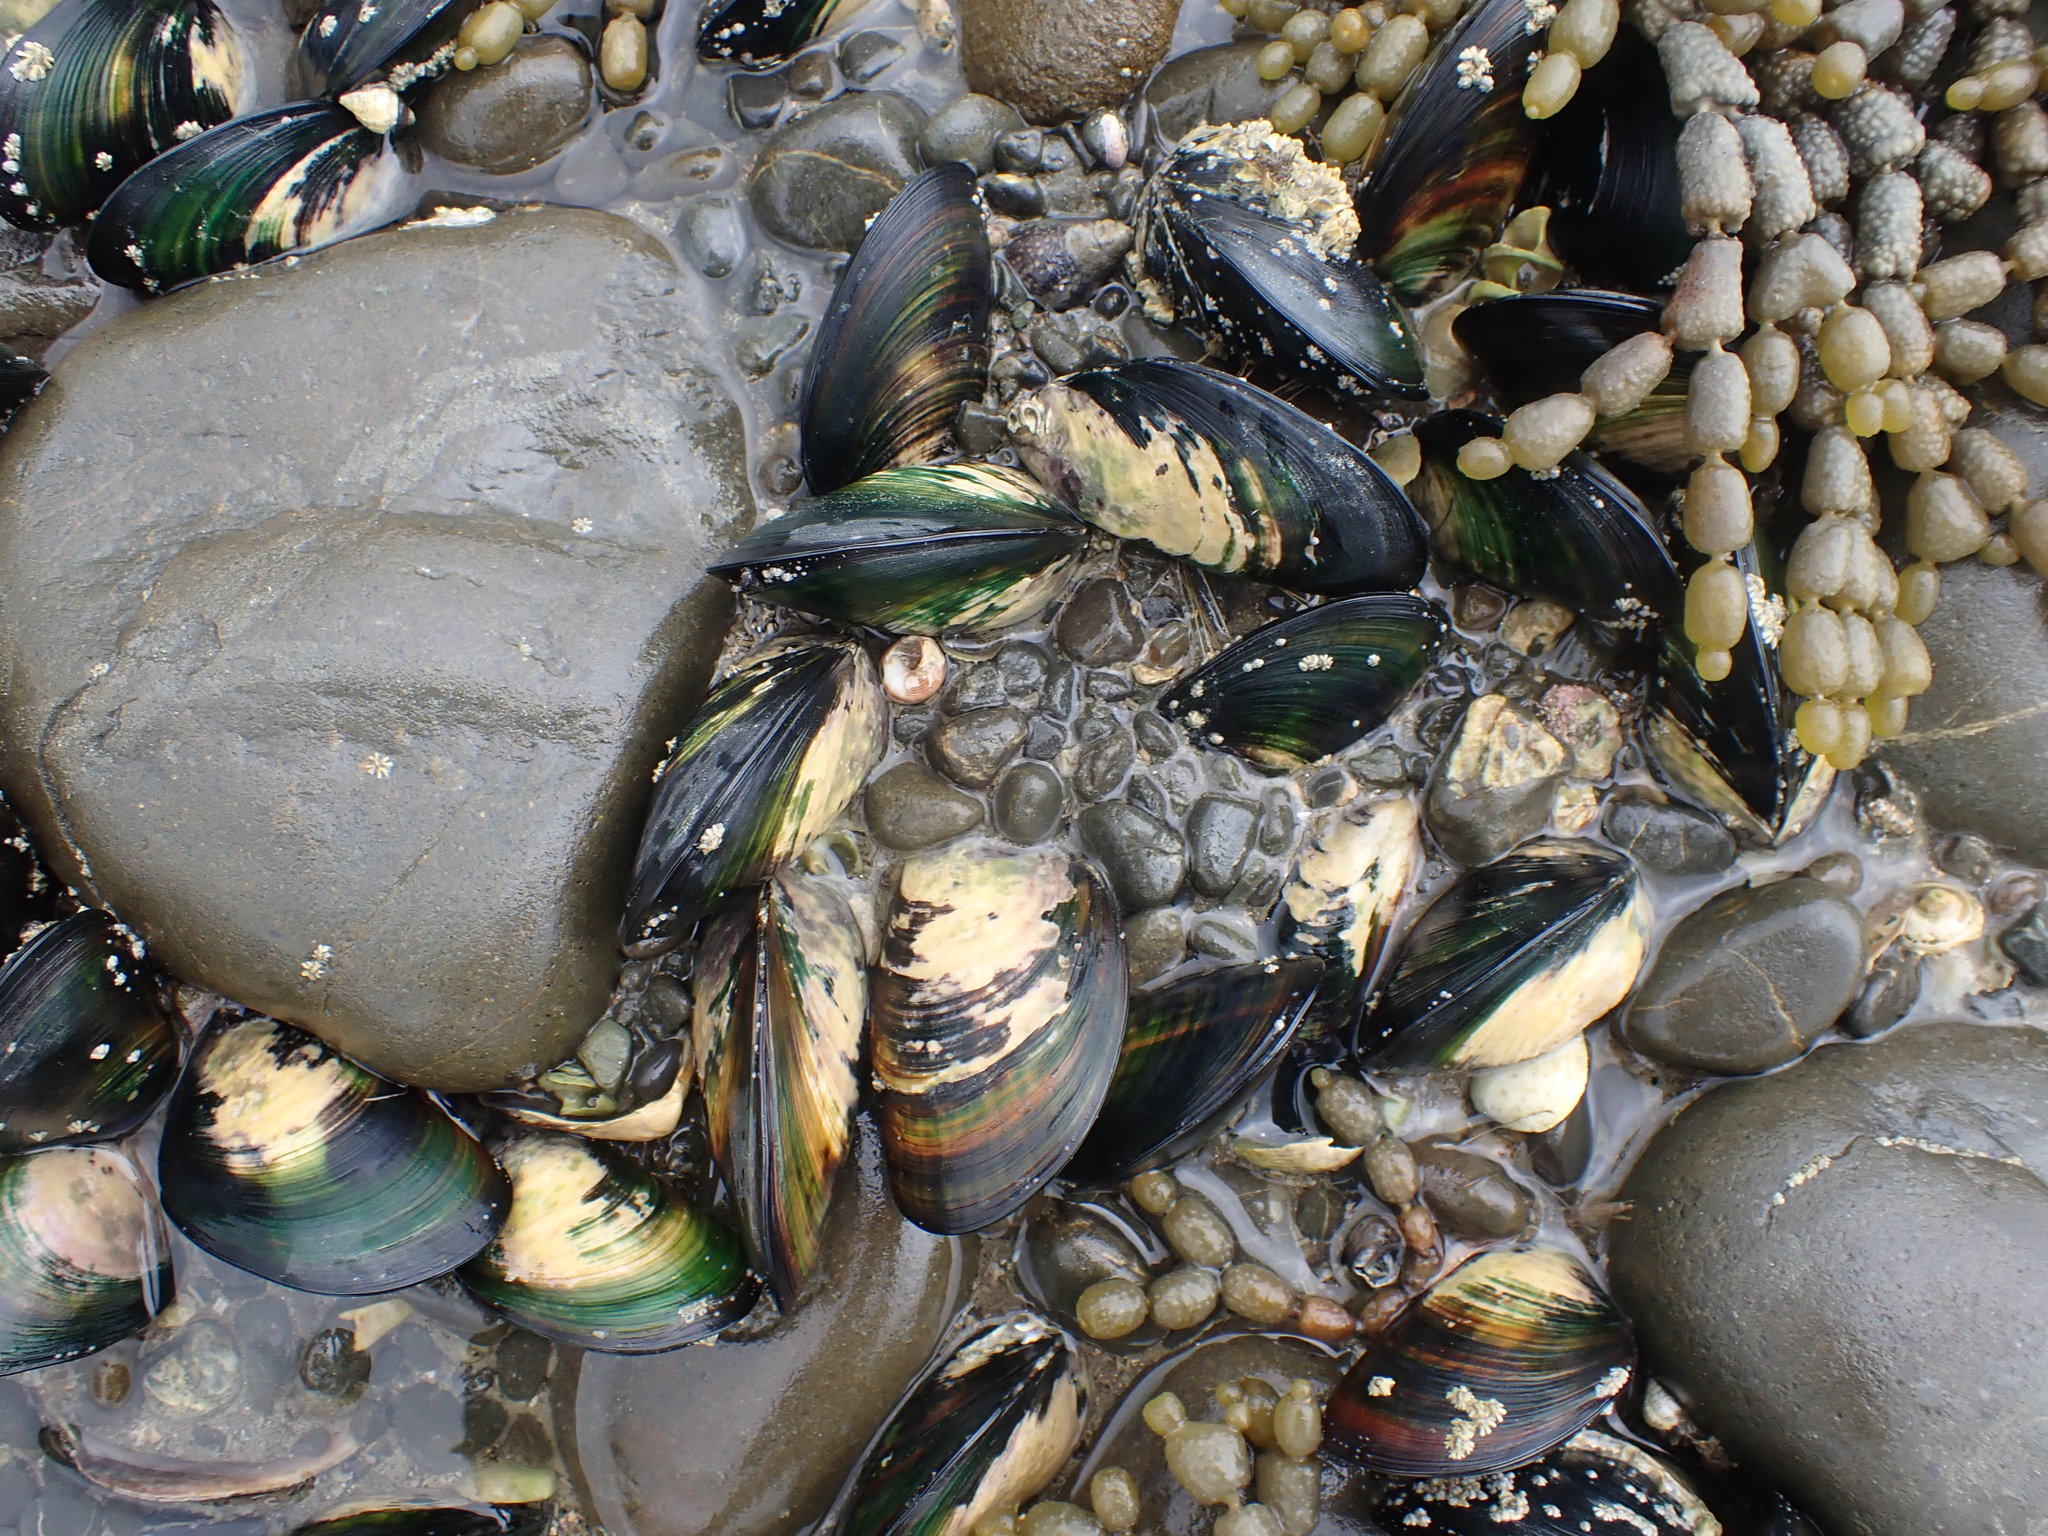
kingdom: Animalia
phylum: Mollusca
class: Bivalvia
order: Mytilida
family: Mytilidae
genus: Perna
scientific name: Perna canaliculus
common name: New zealand greenshelltm
